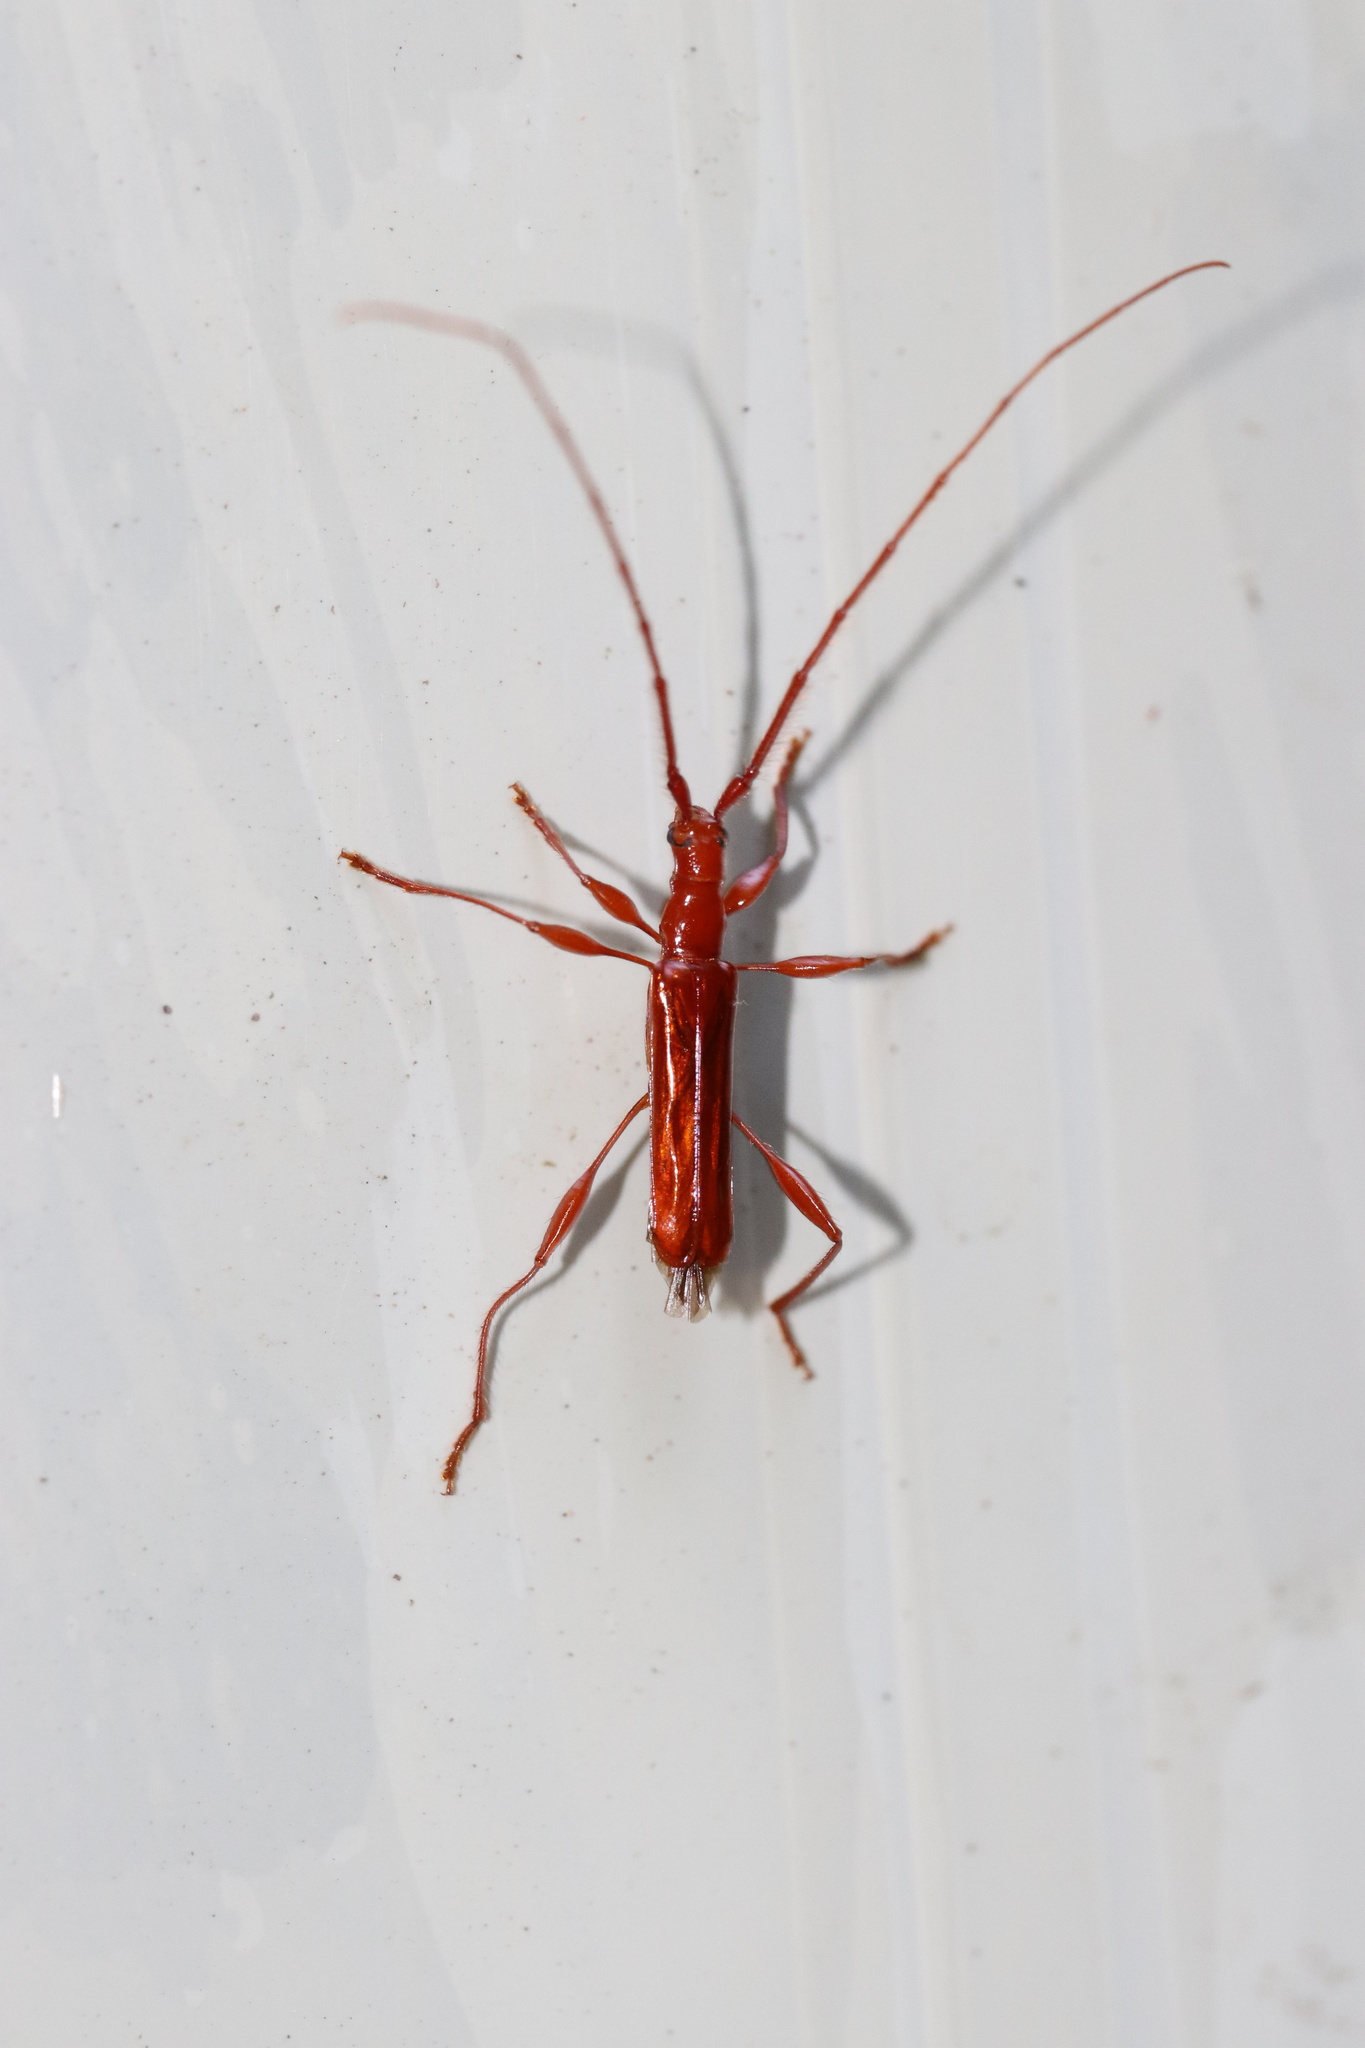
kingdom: Animalia
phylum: Arthropoda
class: Insecta
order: Coleoptera
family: Cerambycidae
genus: Chenoderus
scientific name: Chenoderus testaceus
